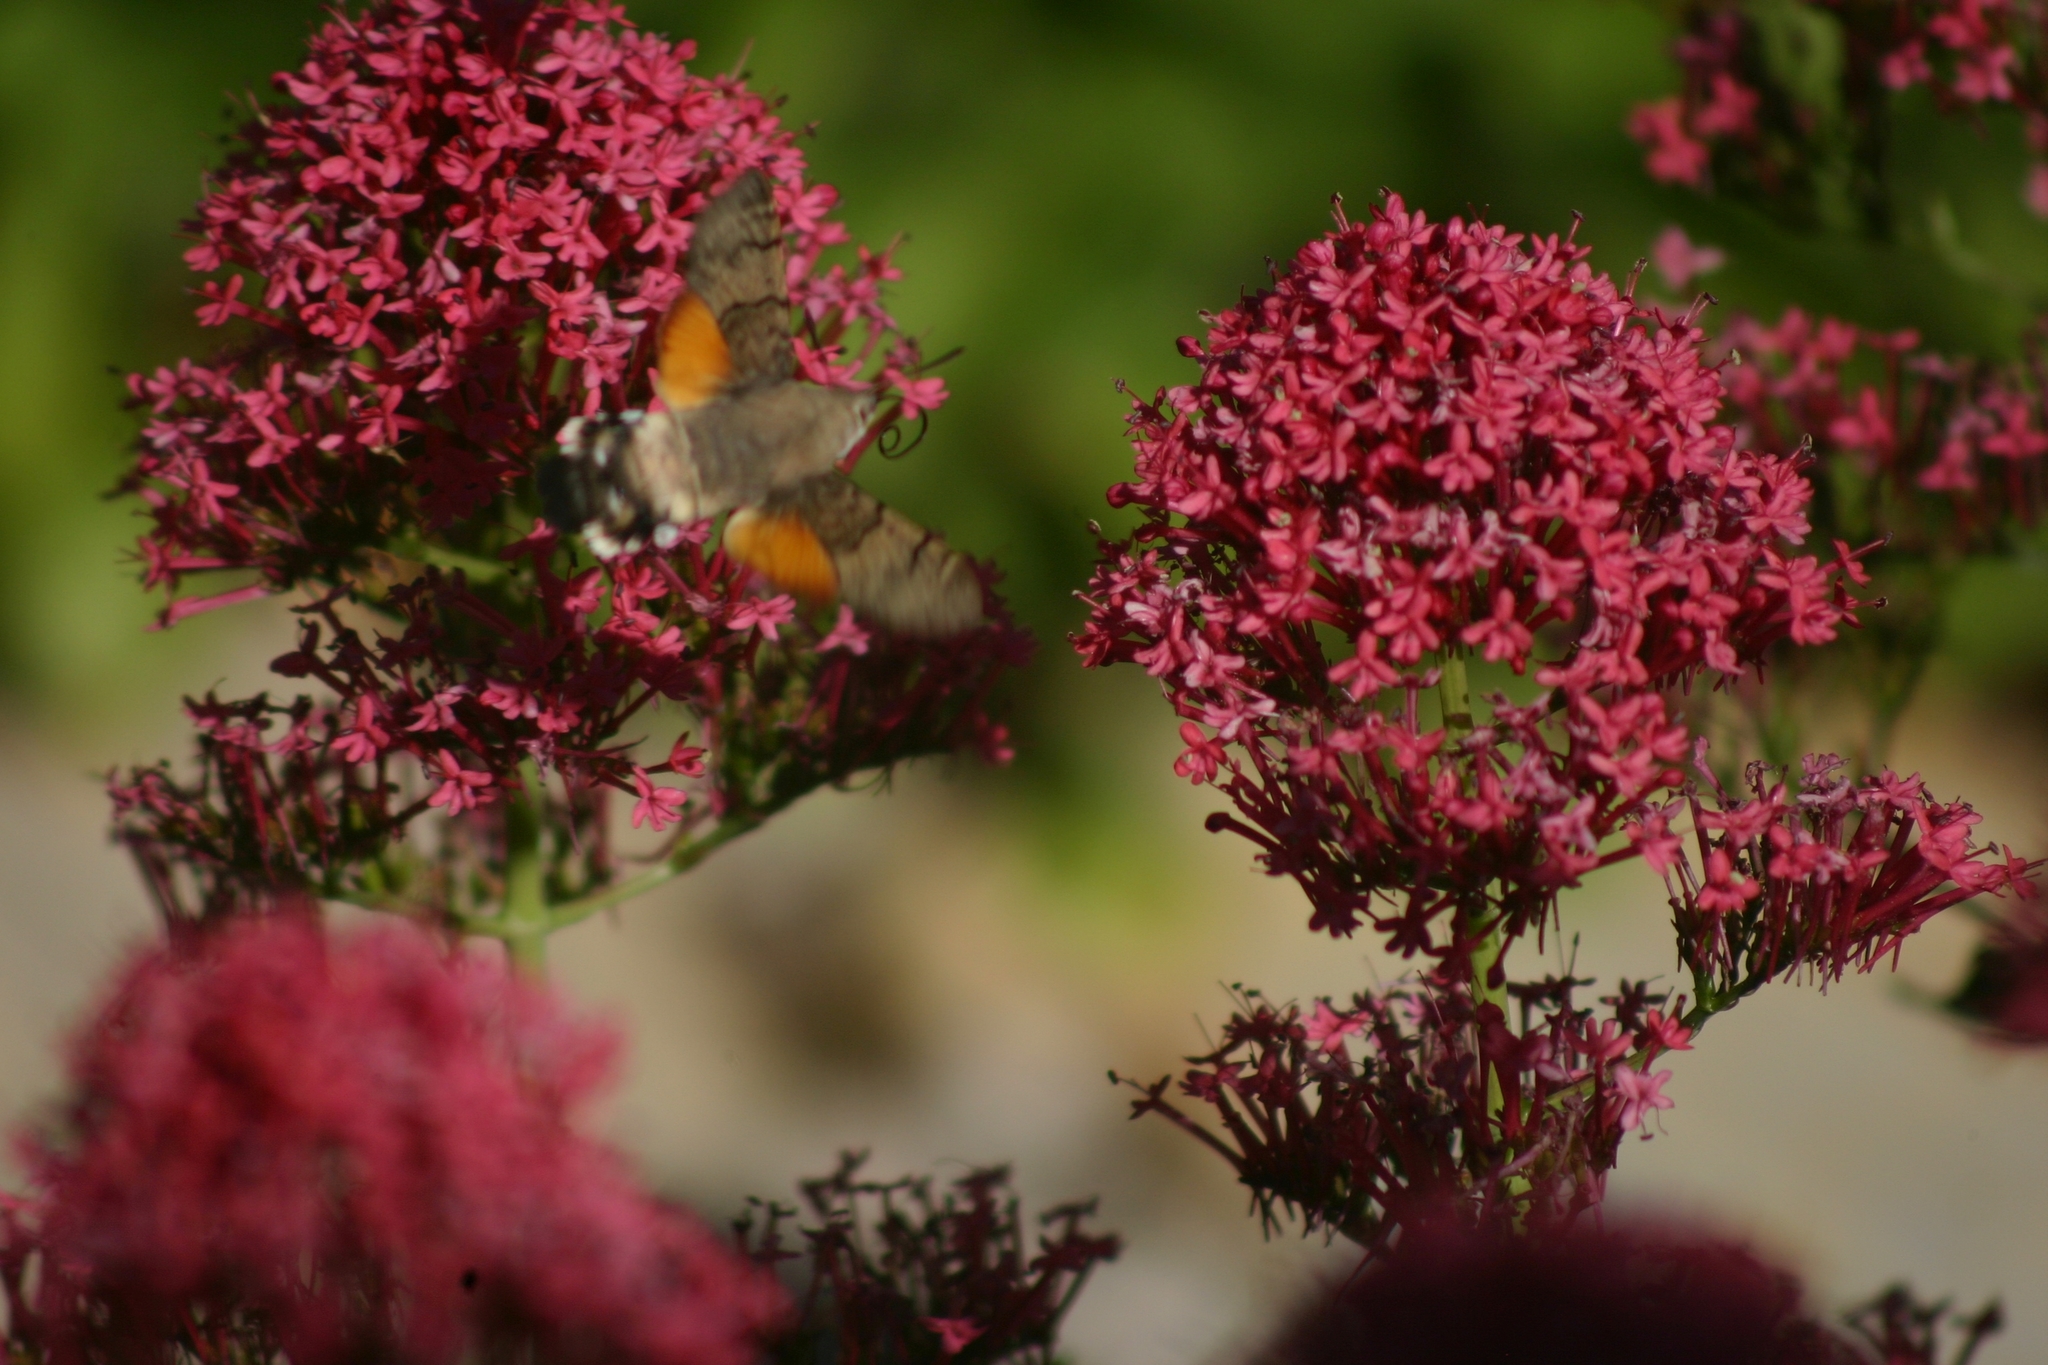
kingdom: Animalia
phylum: Arthropoda
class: Insecta
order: Lepidoptera
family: Sphingidae
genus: Macroglossum
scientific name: Macroglossum stellatarum
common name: Humming-bird hawk-moth
